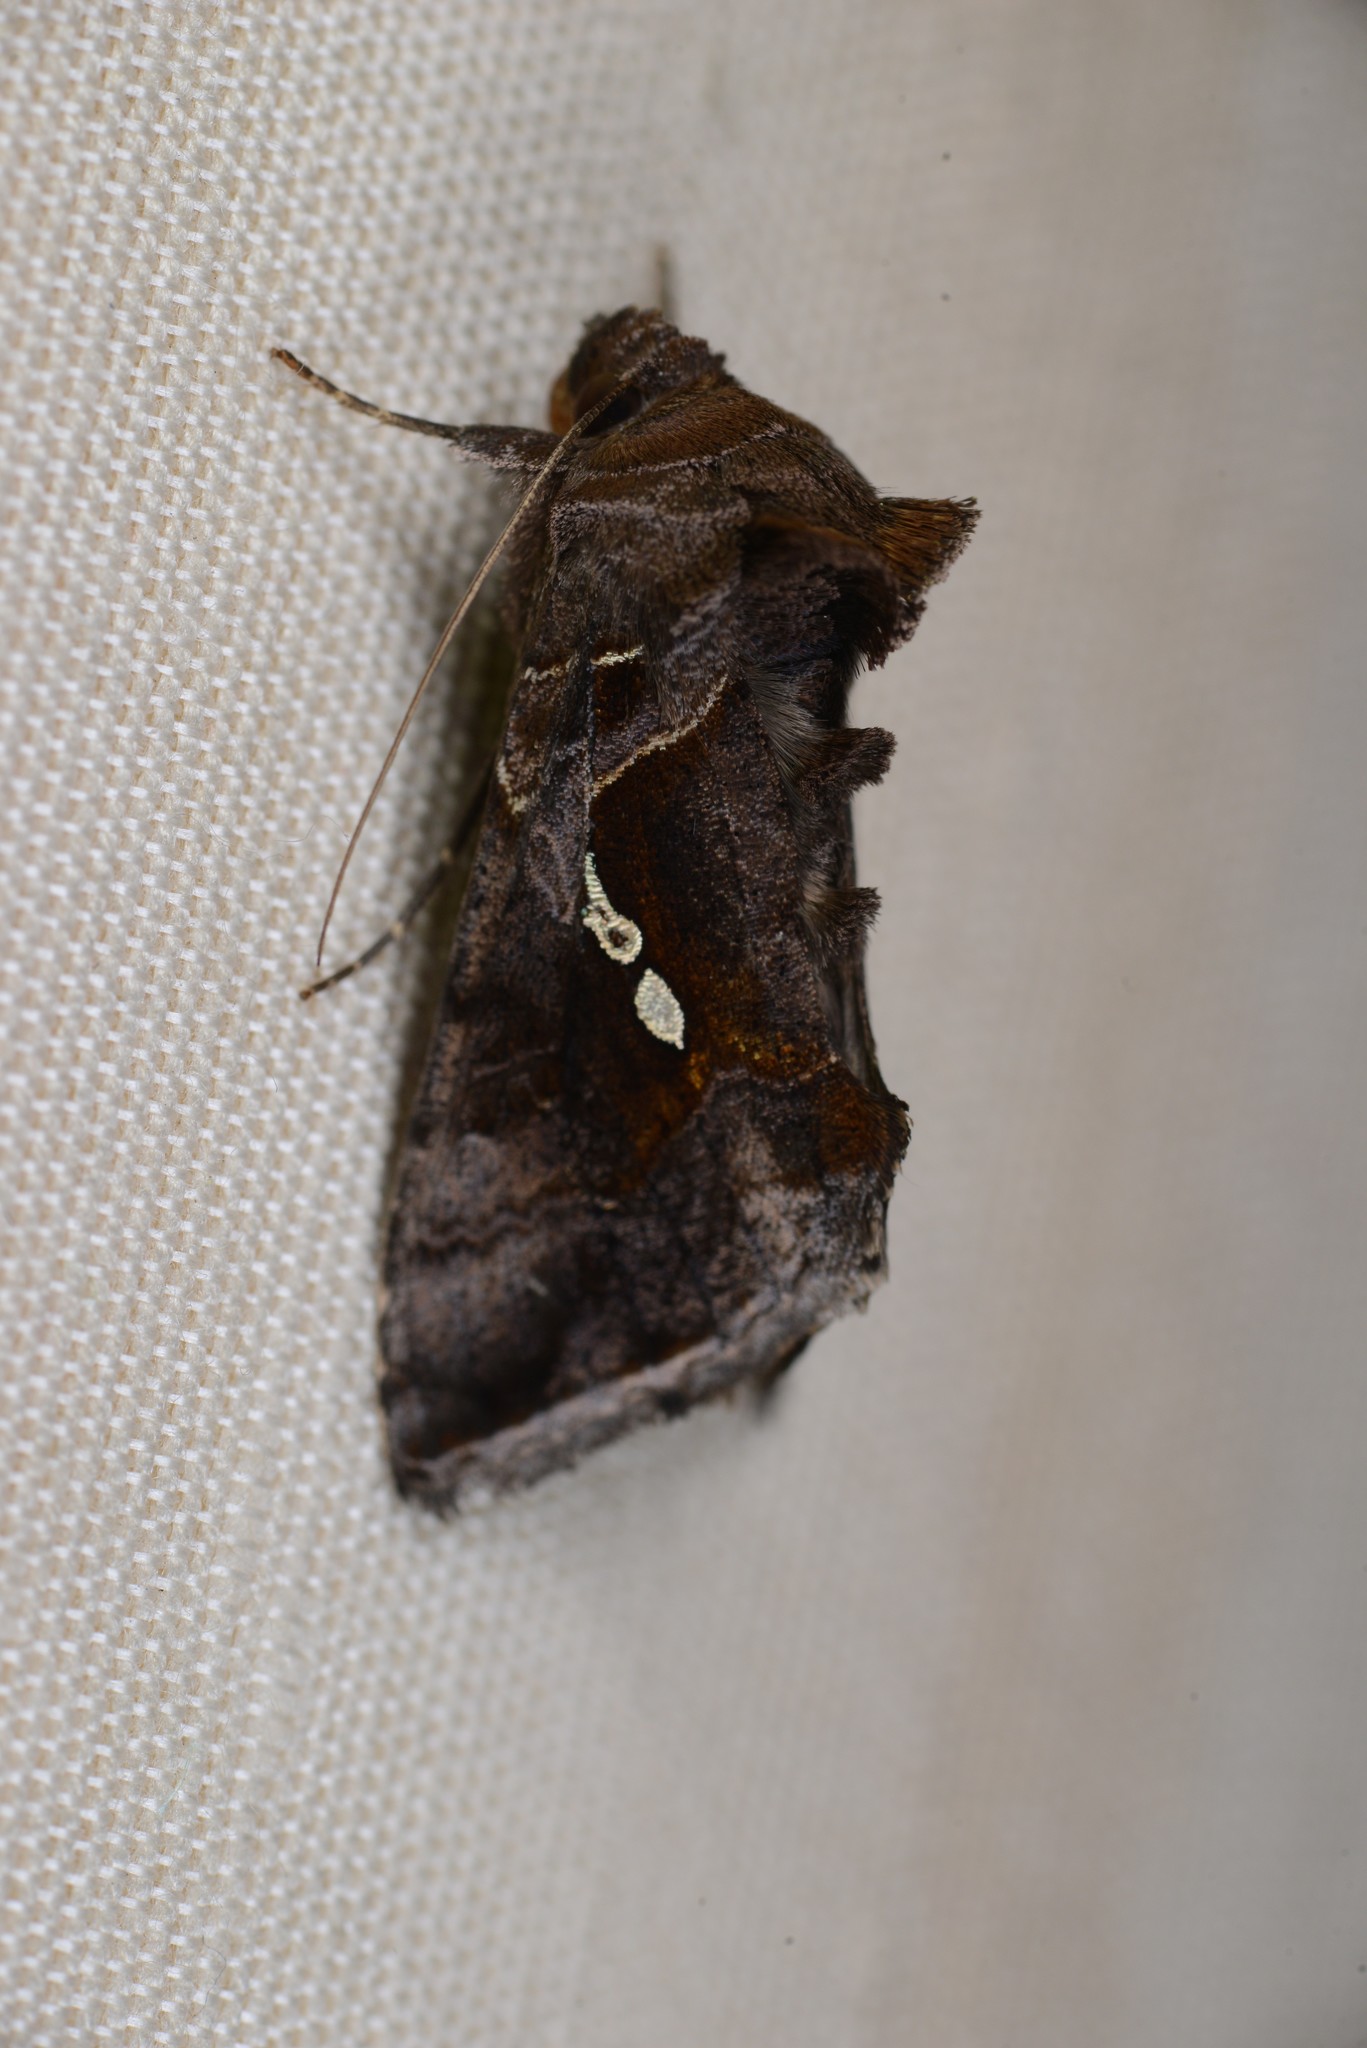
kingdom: Animalia
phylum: Arthropoda
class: Insecta
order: Lepidoptera
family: Noctuidae
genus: Chrysodeixis
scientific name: Chrysodeixis eriosoma
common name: Green garden looper
